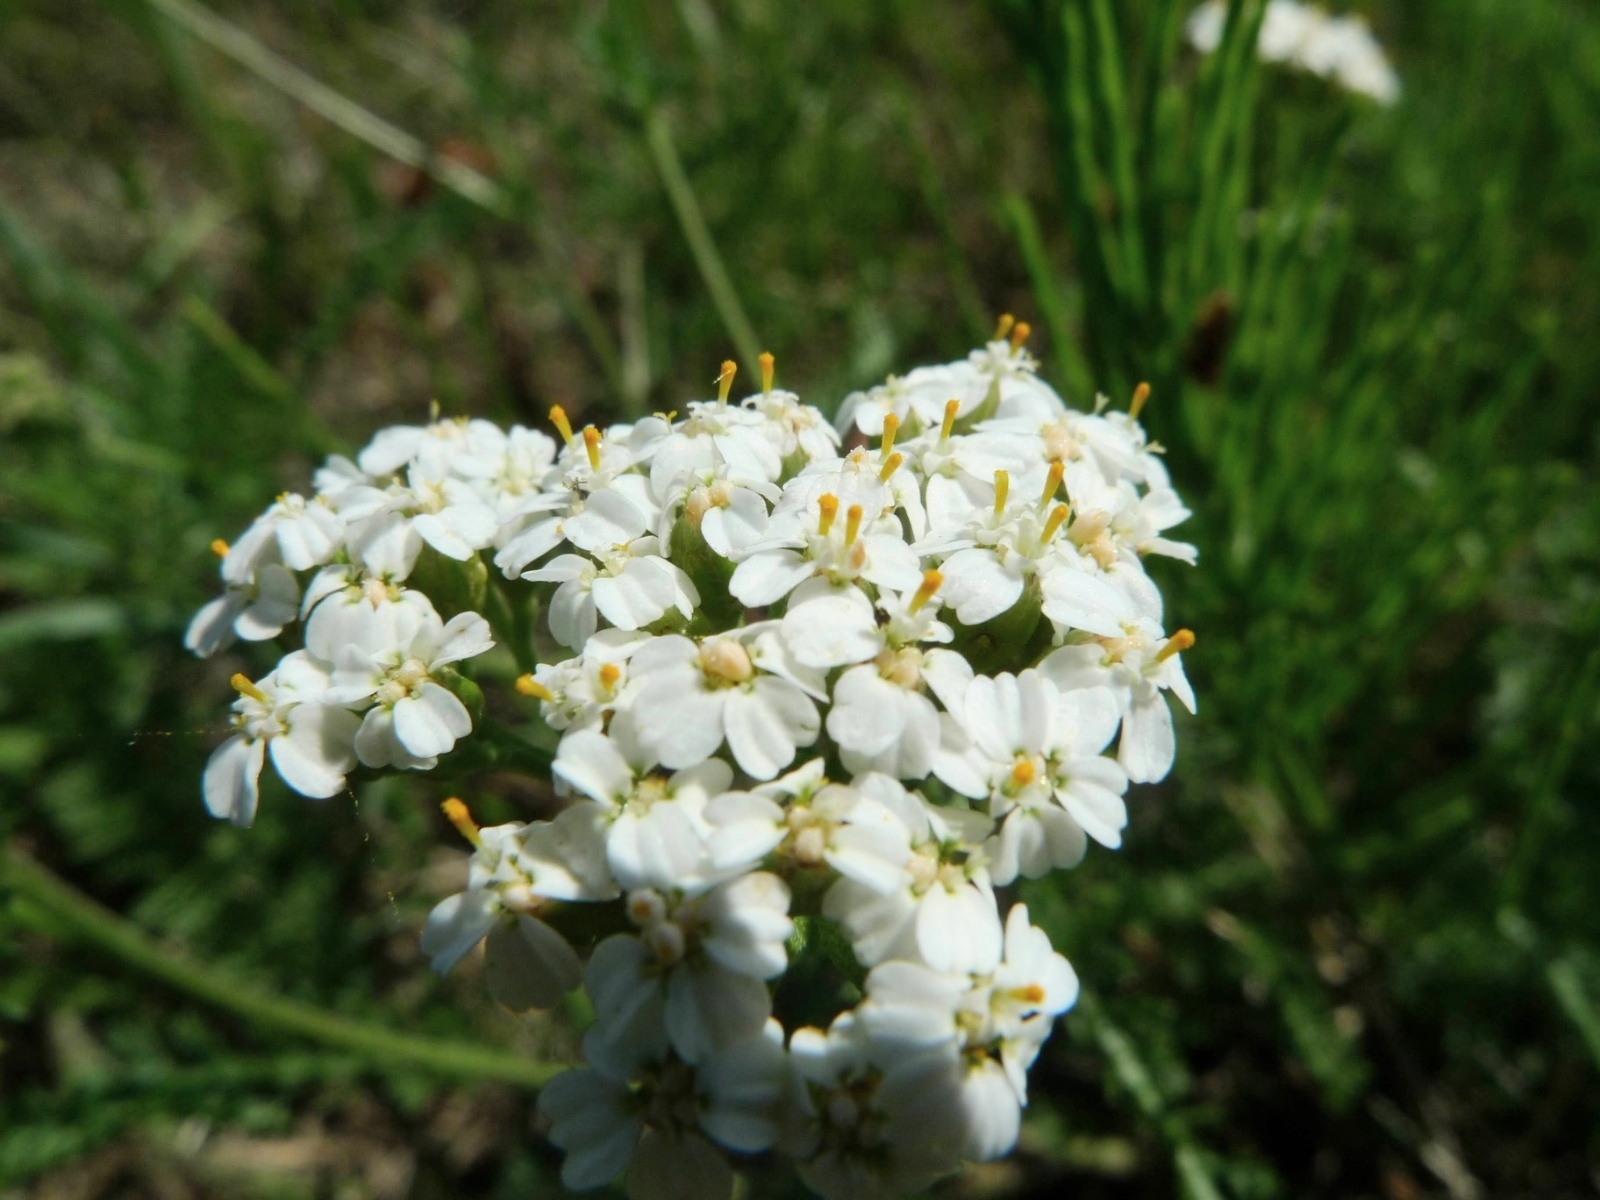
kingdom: Plantae
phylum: Tracheophyta
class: Magnoliopsida
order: Asterales
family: Asteraceae
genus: Achillea
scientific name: Achillea millefolium
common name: Yarrow
